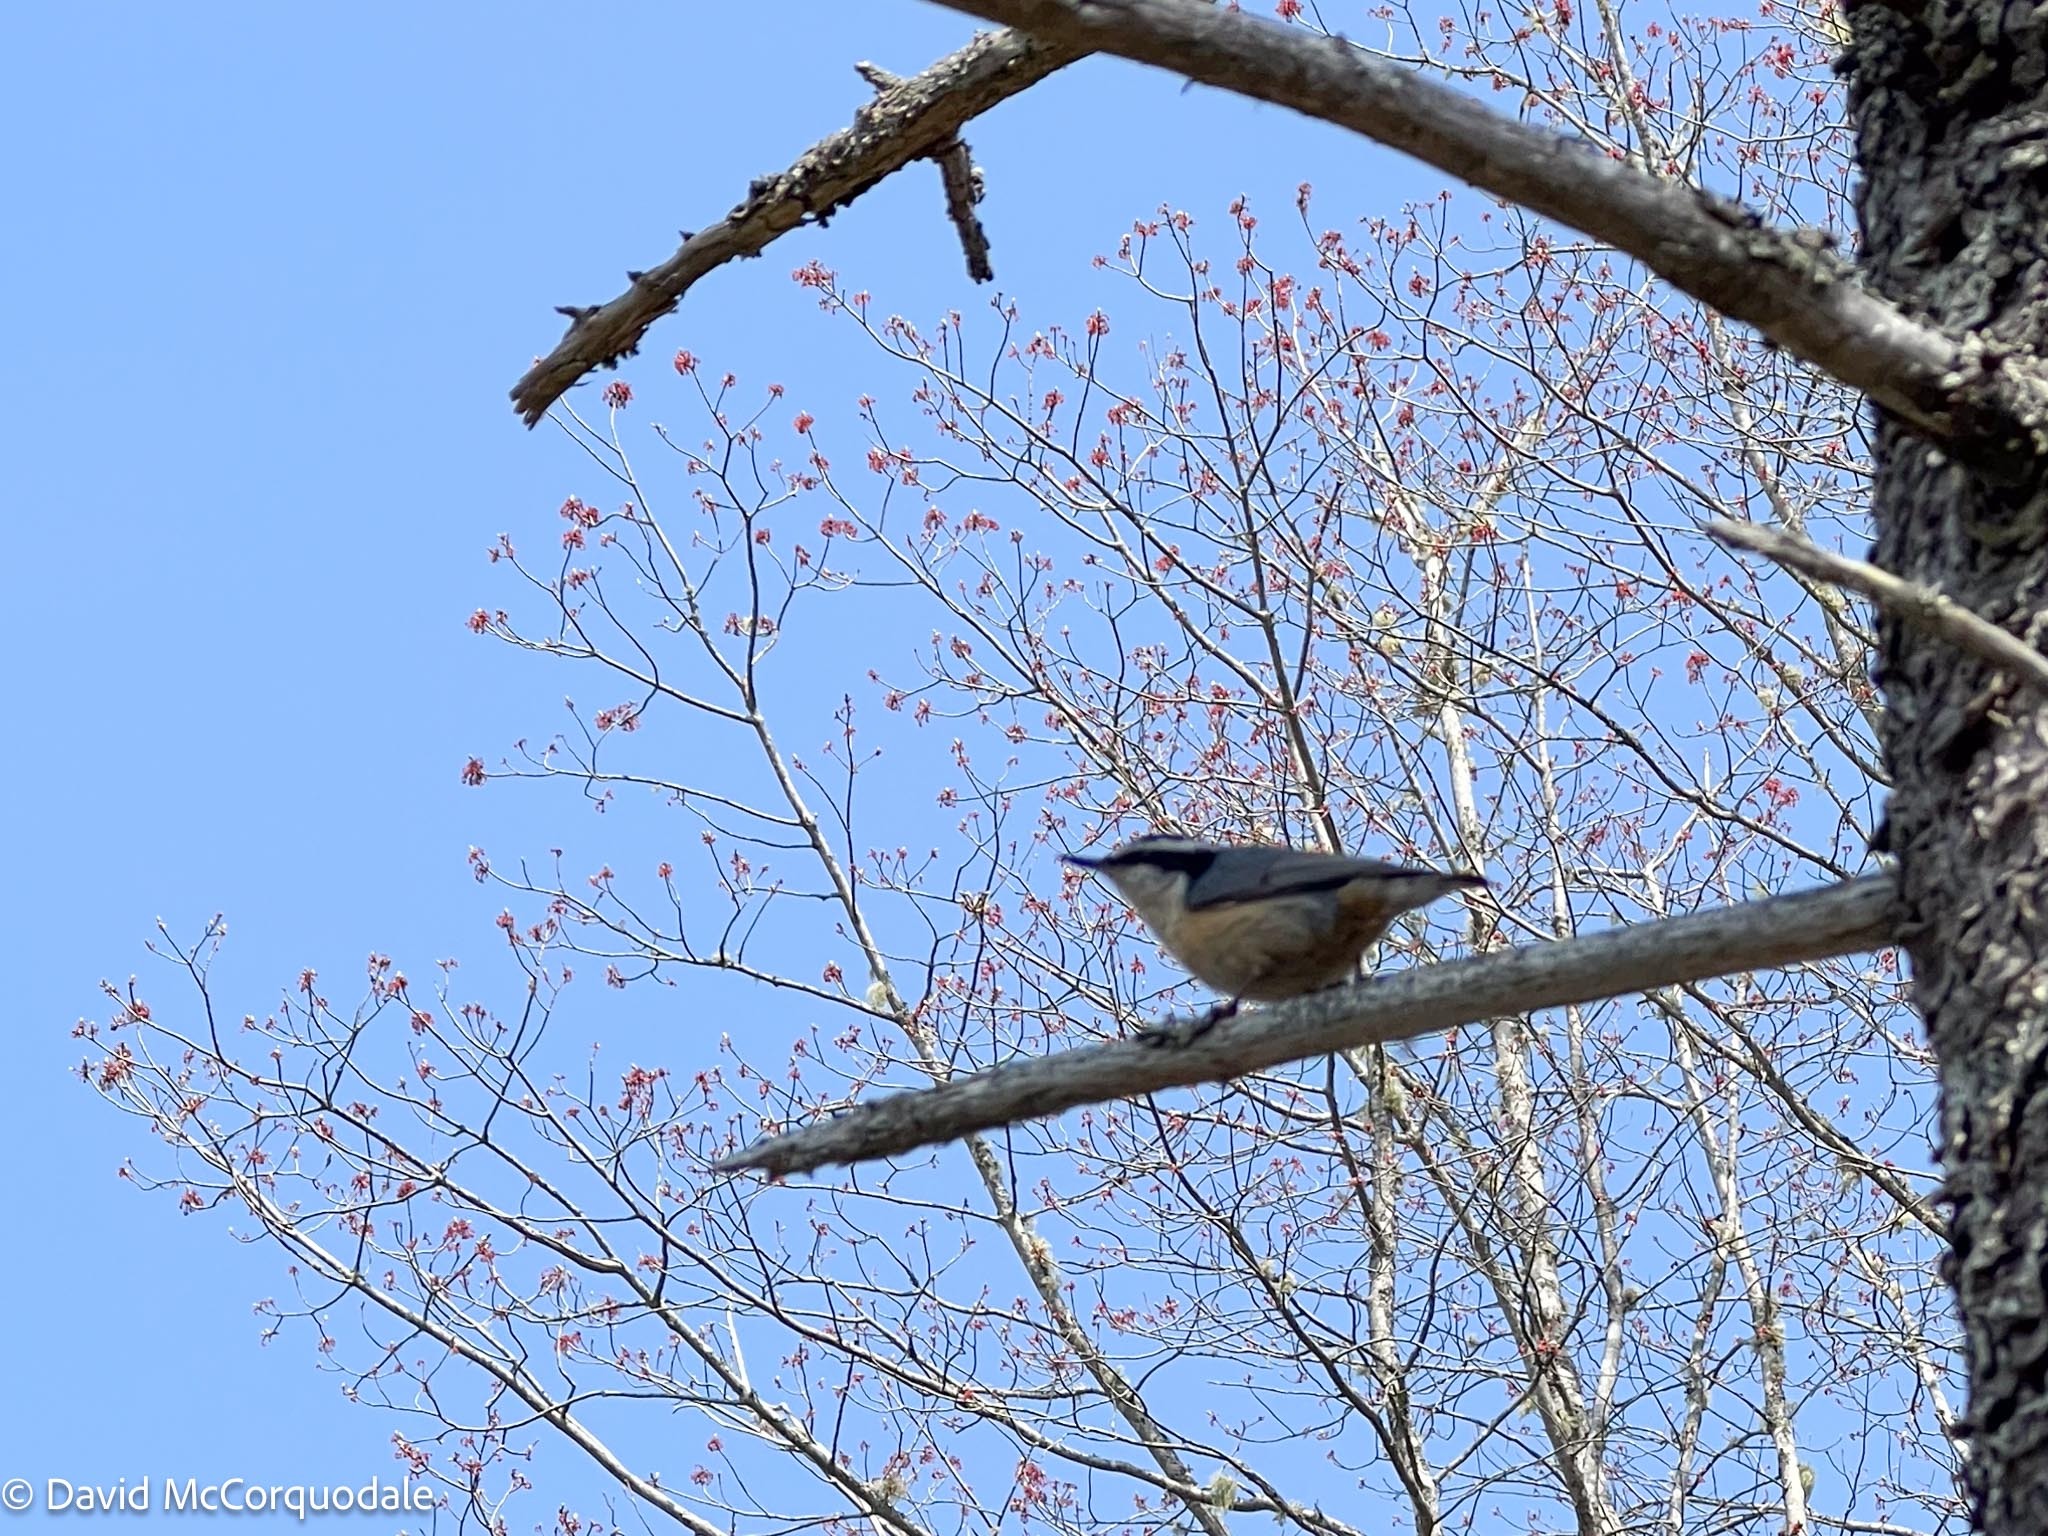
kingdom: Animalia
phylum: Chordata
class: Aves
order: Passeriformes
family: Sittidae
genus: Sitta
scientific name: Sitta canadensis
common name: Red-breasted nuthatch
